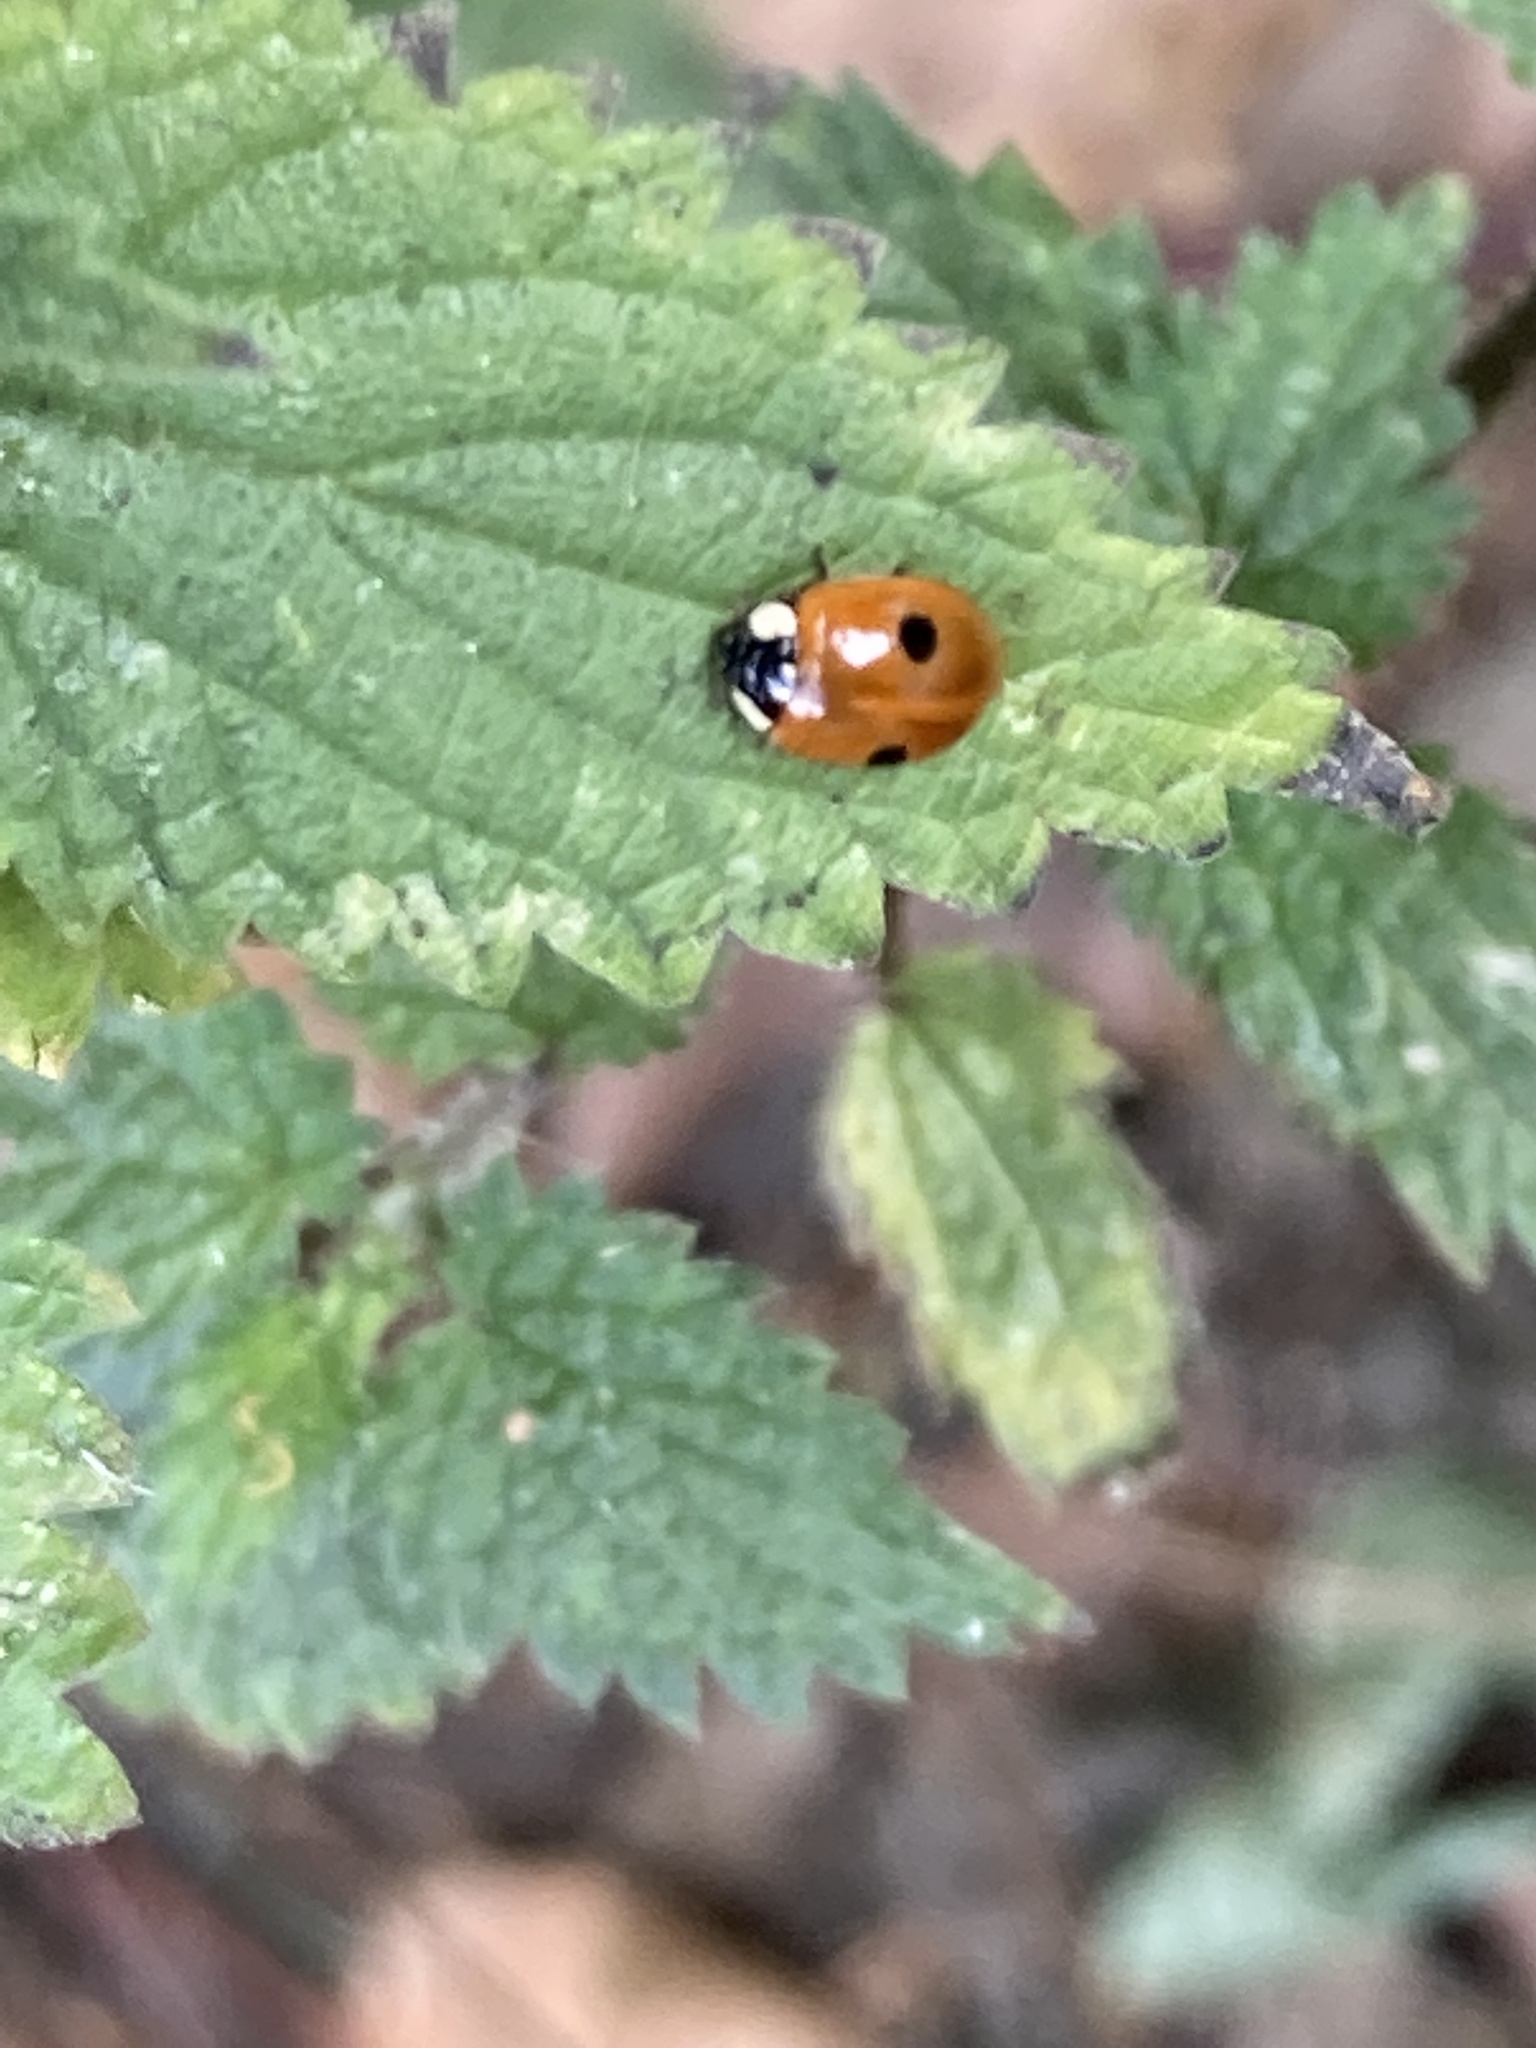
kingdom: Animalia
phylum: Arthropoda
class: Insecta
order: Coleoptera
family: Coccinellidae
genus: Adalia
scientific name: Adalia bipunctata
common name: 2-spot ladybird
